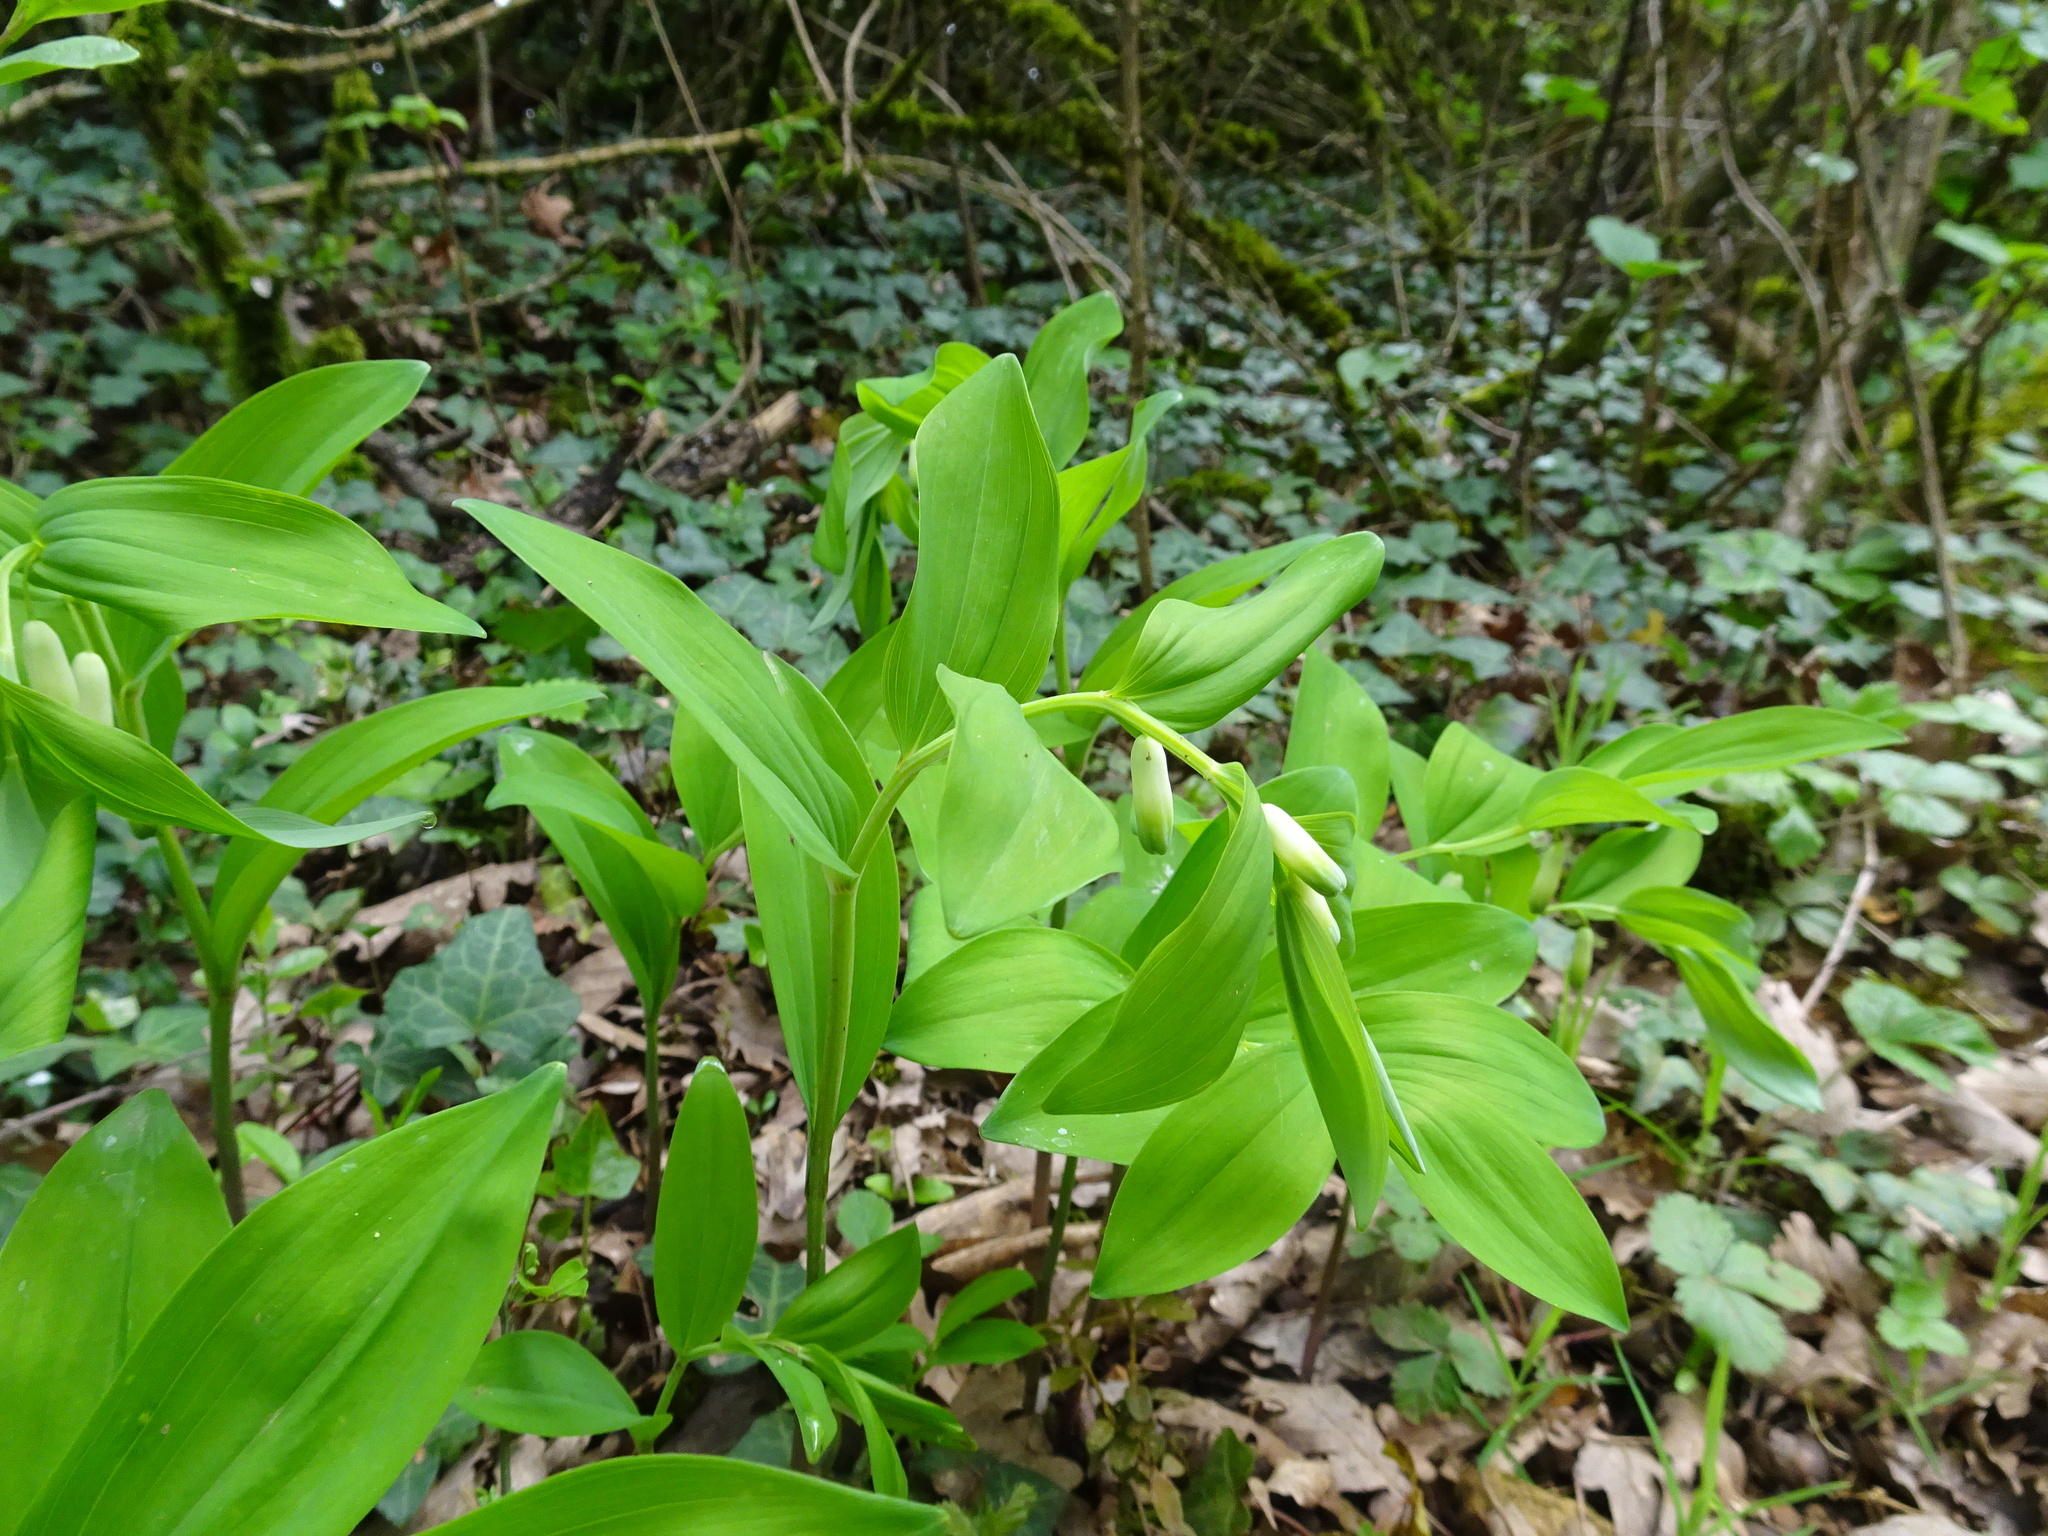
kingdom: Plantae
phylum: Tracheophyta
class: Liliopsida
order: Asparagales
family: Asparagaceae
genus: Polygonatum
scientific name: Polygonatum multiflorum
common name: Solomon's-seal
